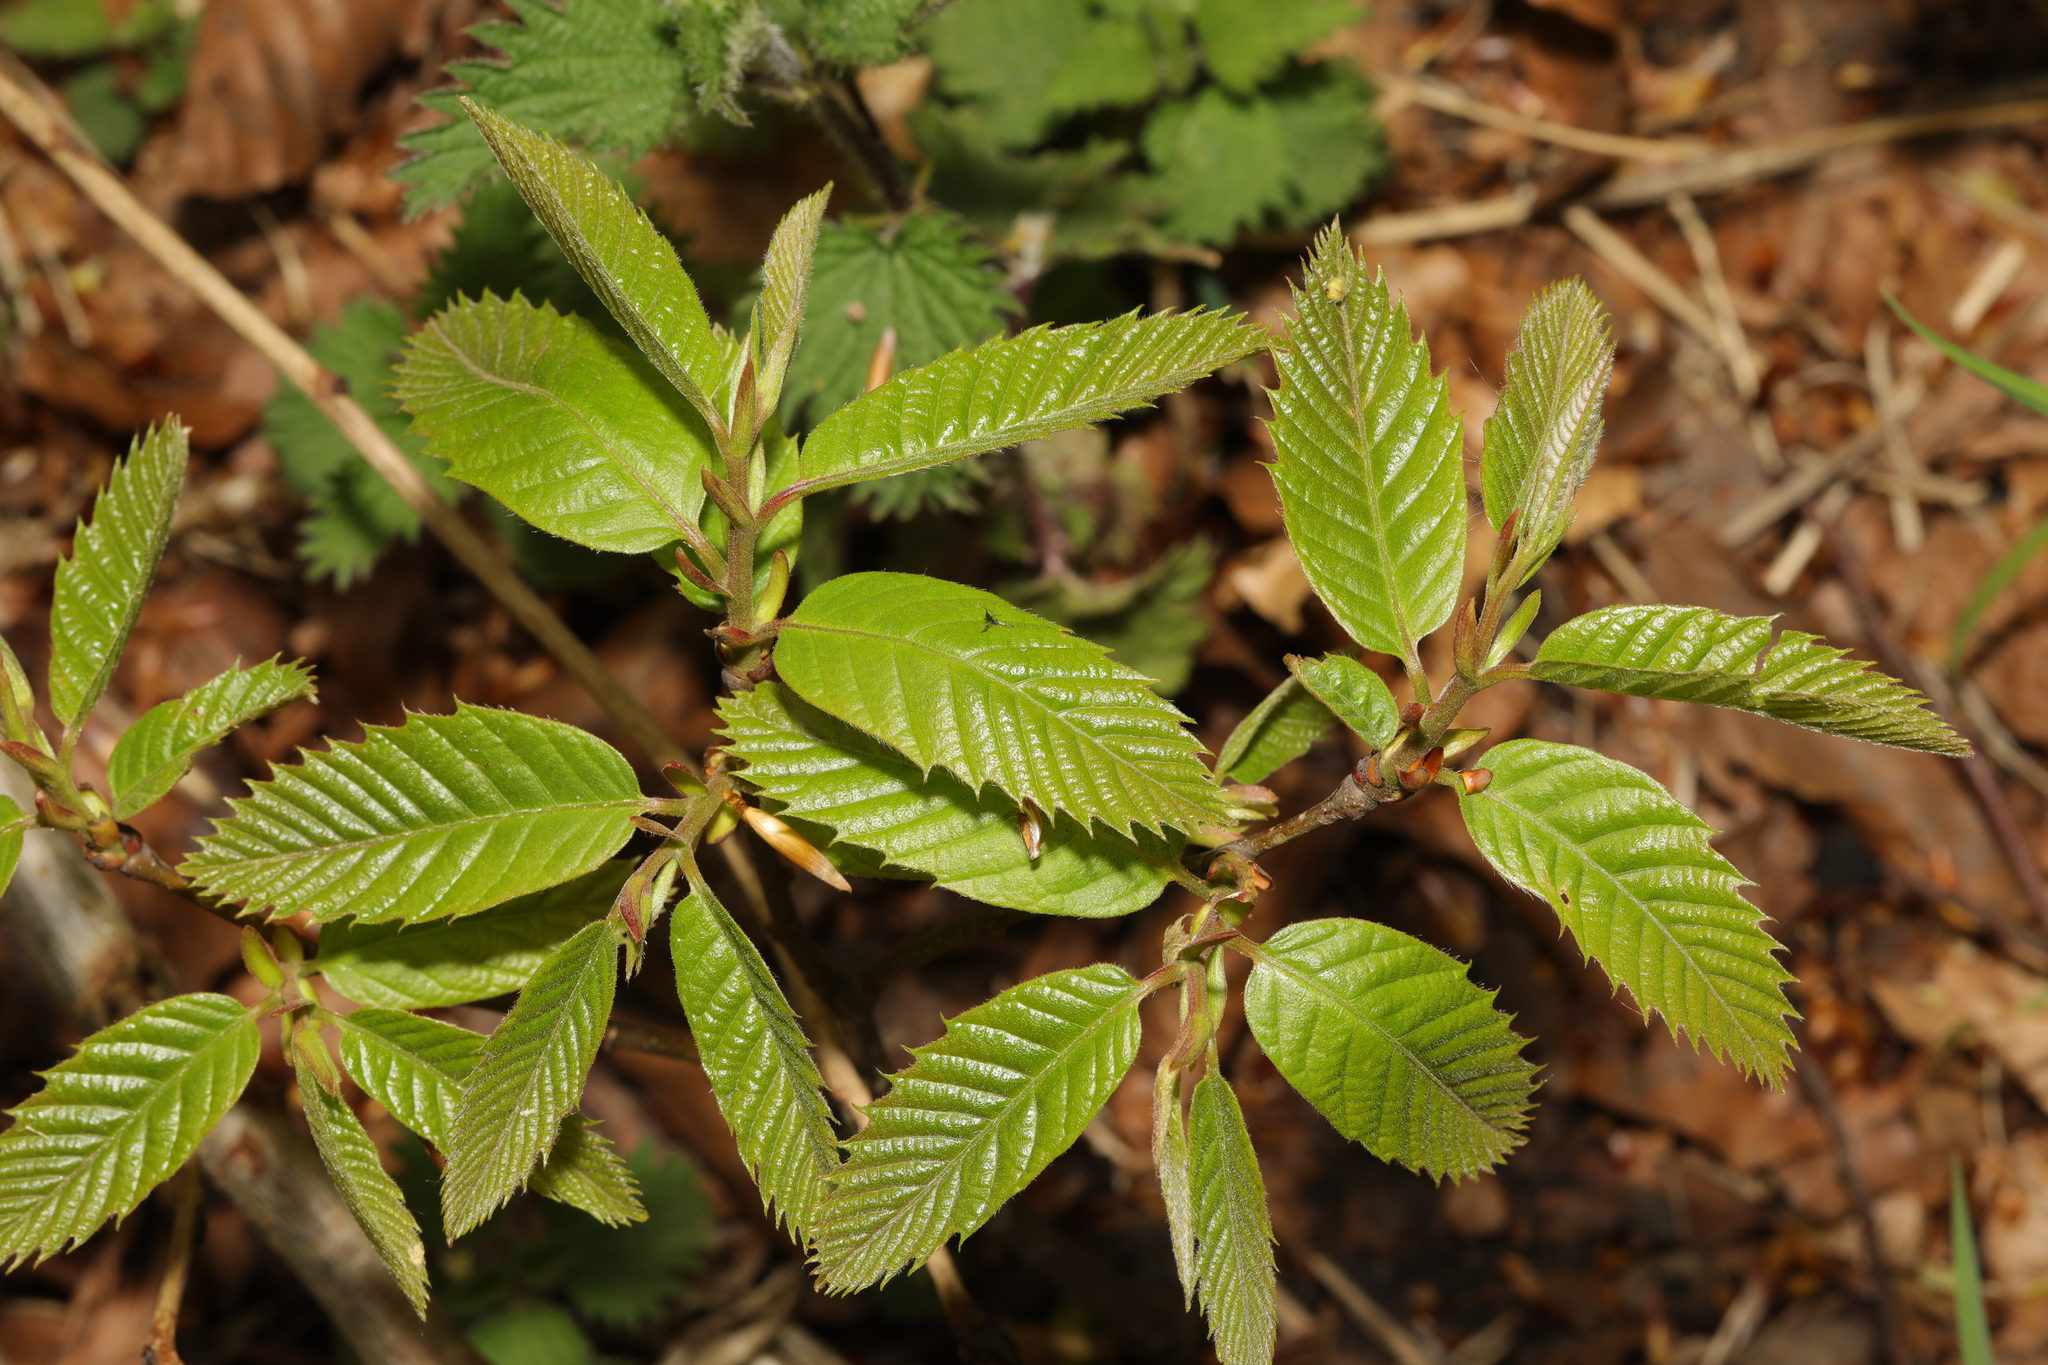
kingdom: Plantae
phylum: Tracheophyta
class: Magnoliopsida
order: Fagales
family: Fagaceae
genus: Castanea
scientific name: Castanea sativa
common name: Sweet chestnut
